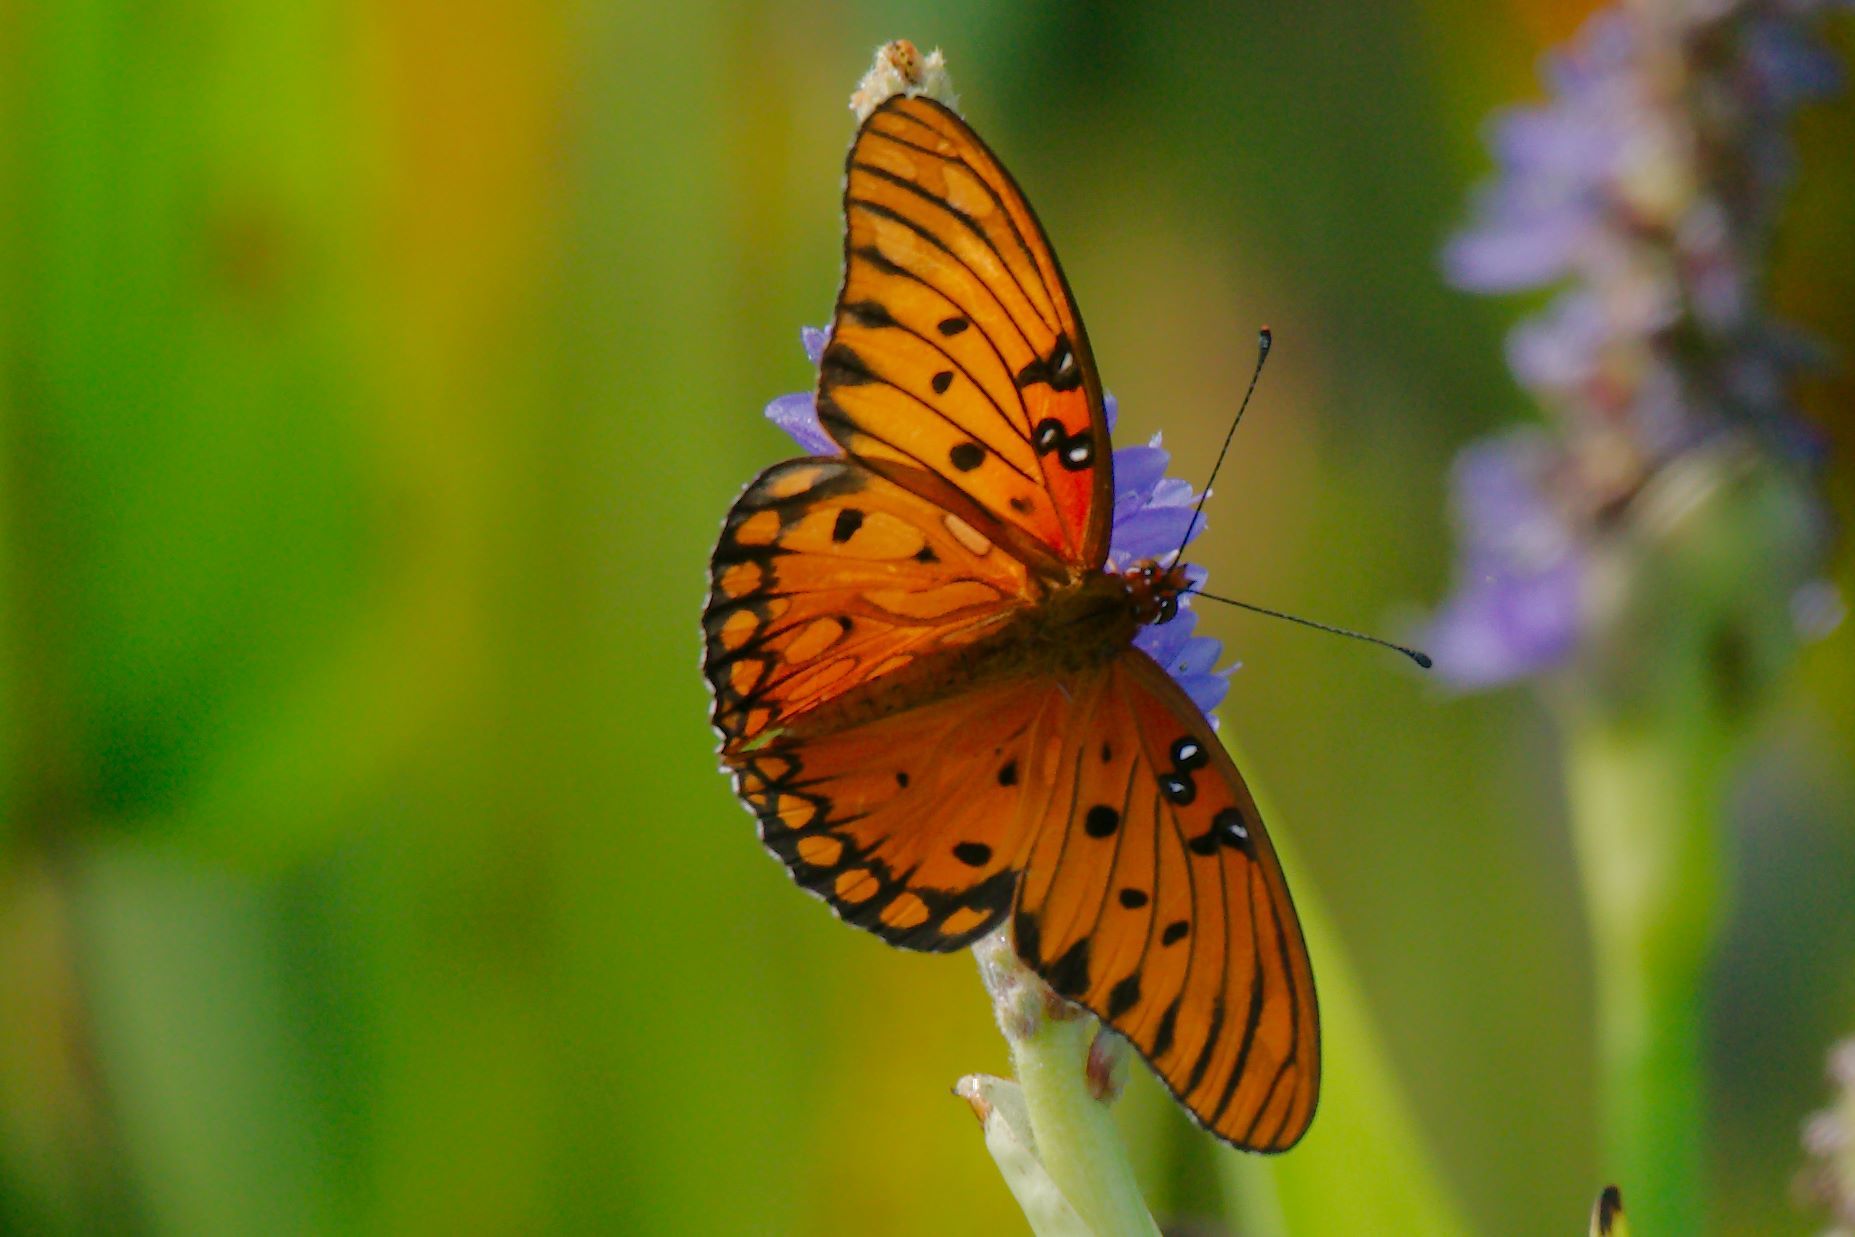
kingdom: Animalia
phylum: Arthropoda
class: Insecta
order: Lepidoptera
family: Nymphalidae
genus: Dione
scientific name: Dione vanillae
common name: Gulf fritillary
